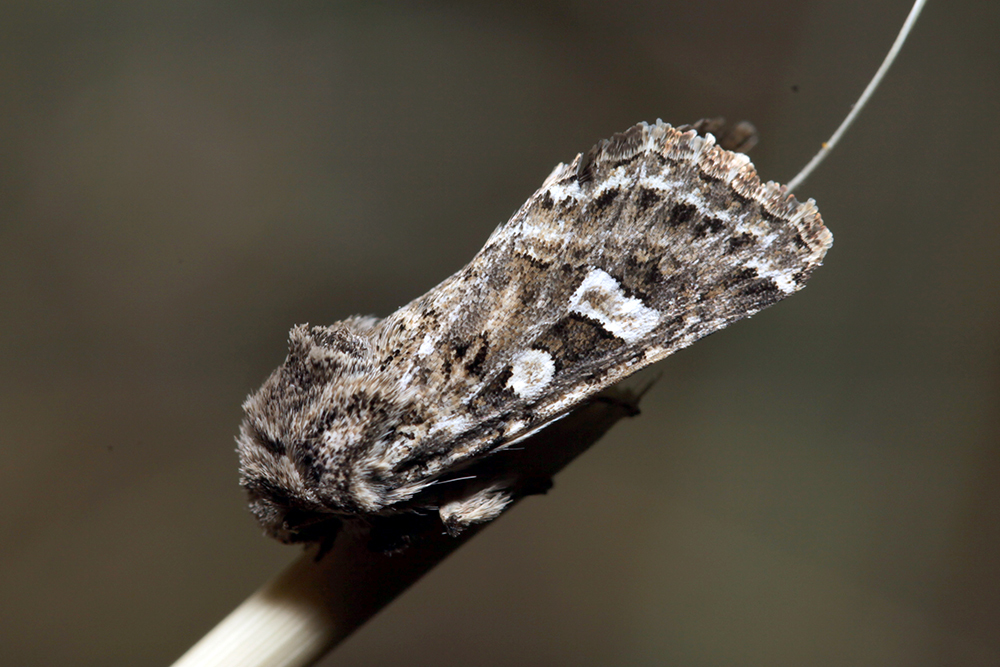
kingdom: Animalia
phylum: Arthropoda
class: Insecta
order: Lepidoptera
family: Noctuidae
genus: Saragossa
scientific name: Saragossa siccanorum
